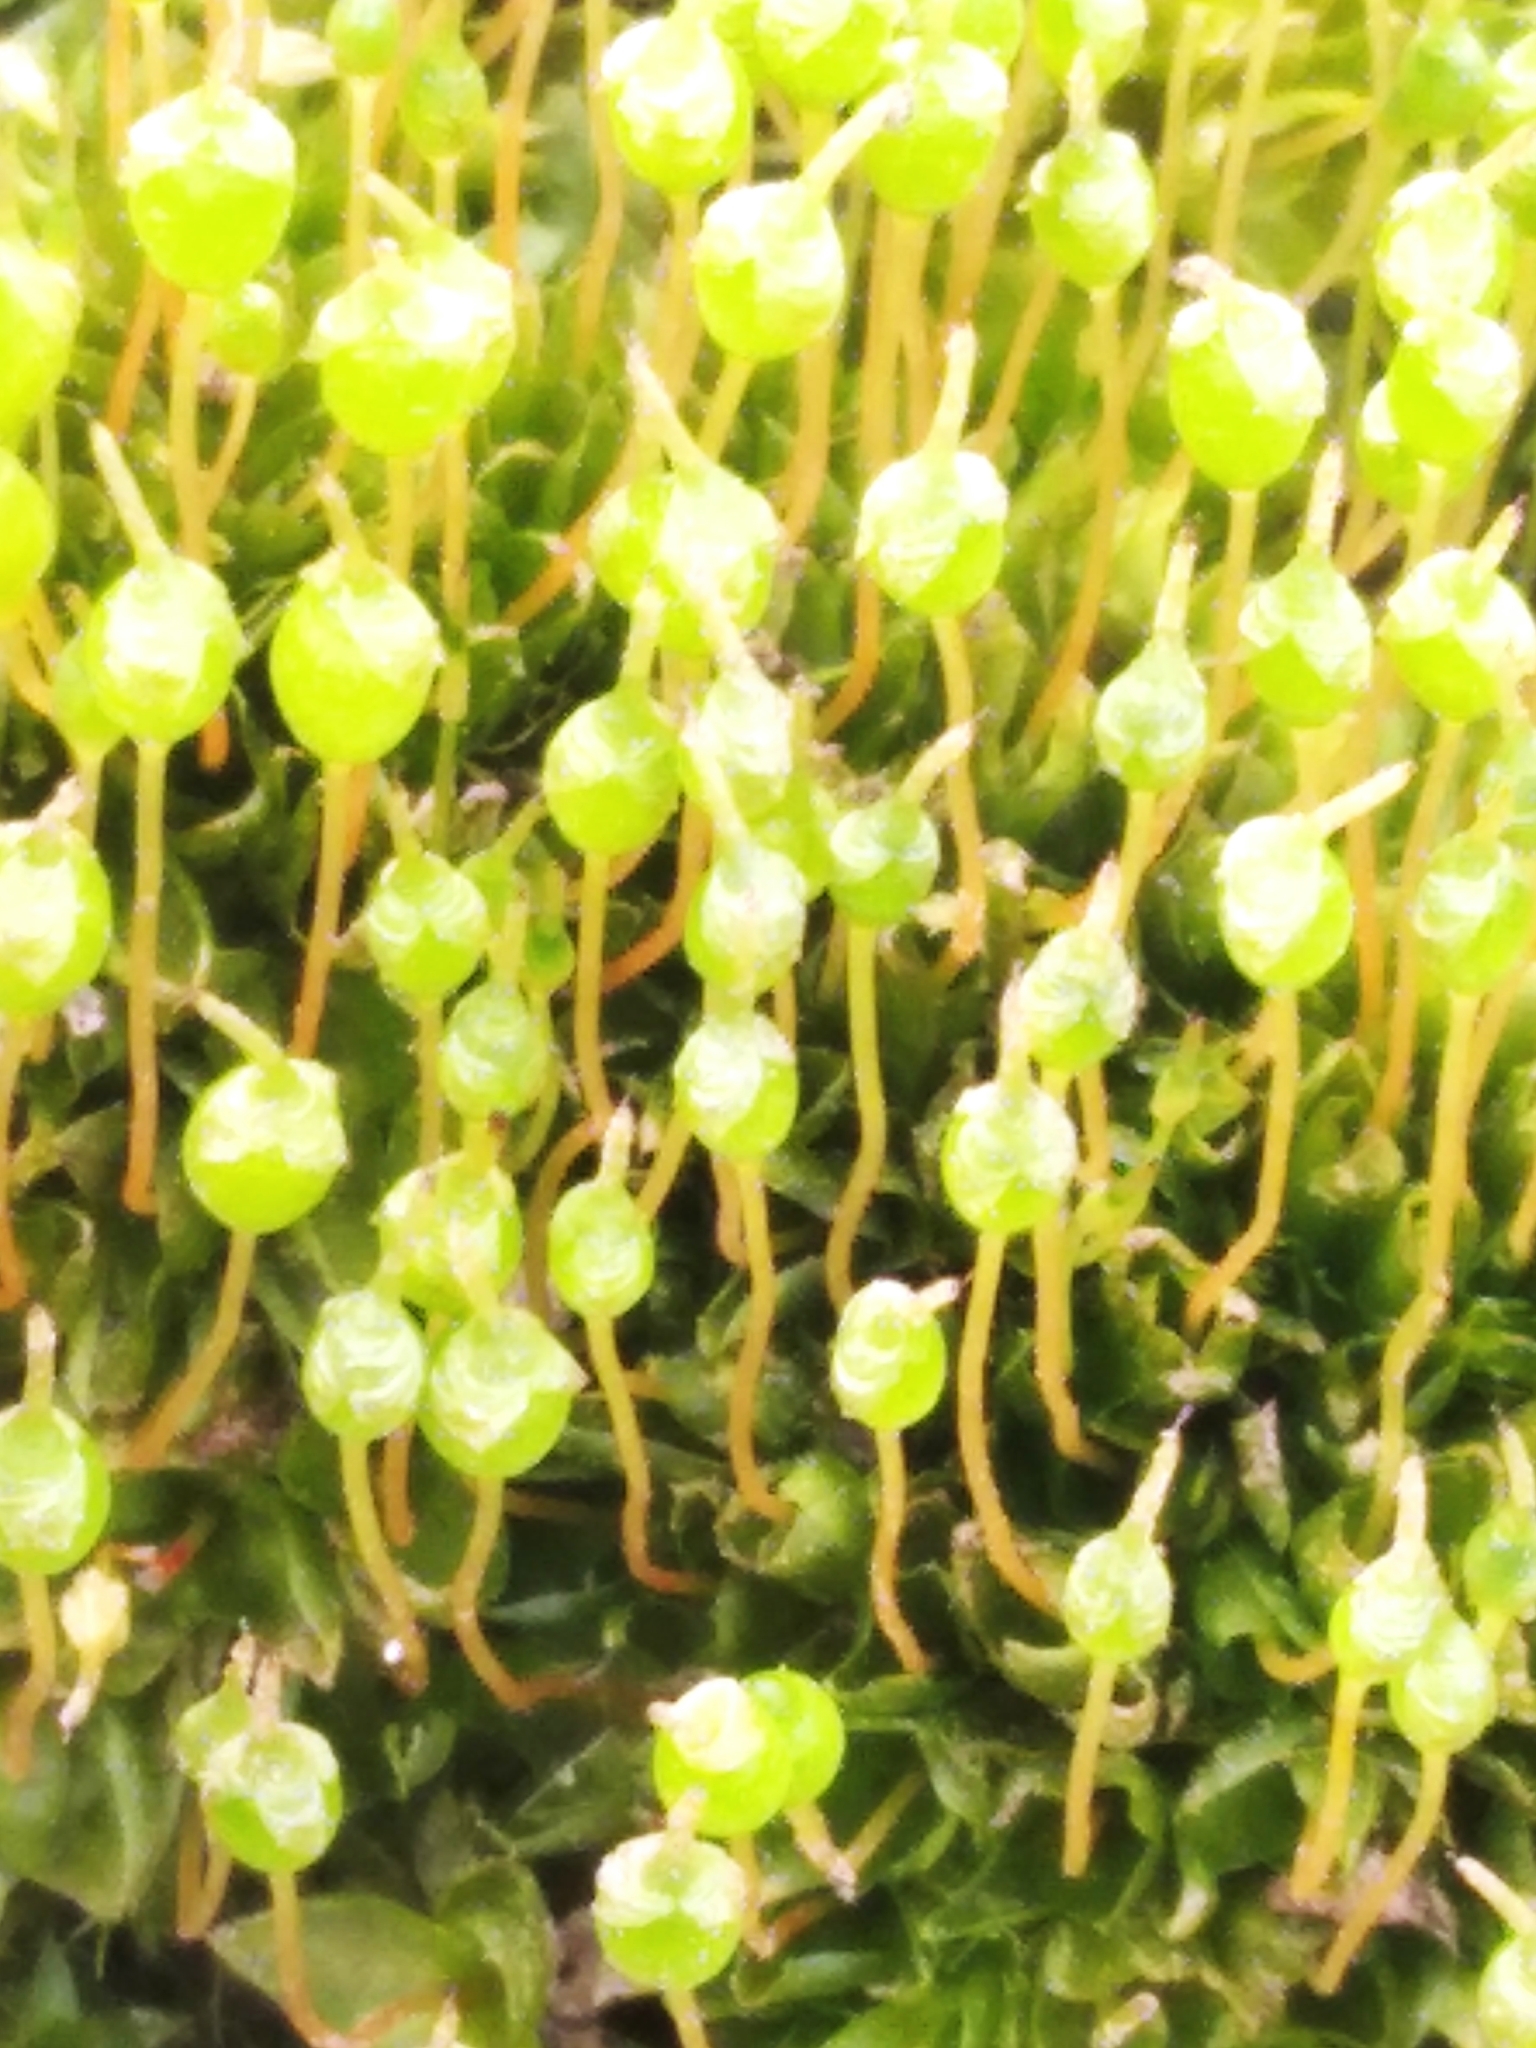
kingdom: Plantae
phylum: Bryophyta
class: Bryopsida
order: Funariales
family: Funariaceae
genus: Physcomitrium
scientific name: Physcomitrium pyriforme
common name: Common bladder-moss
